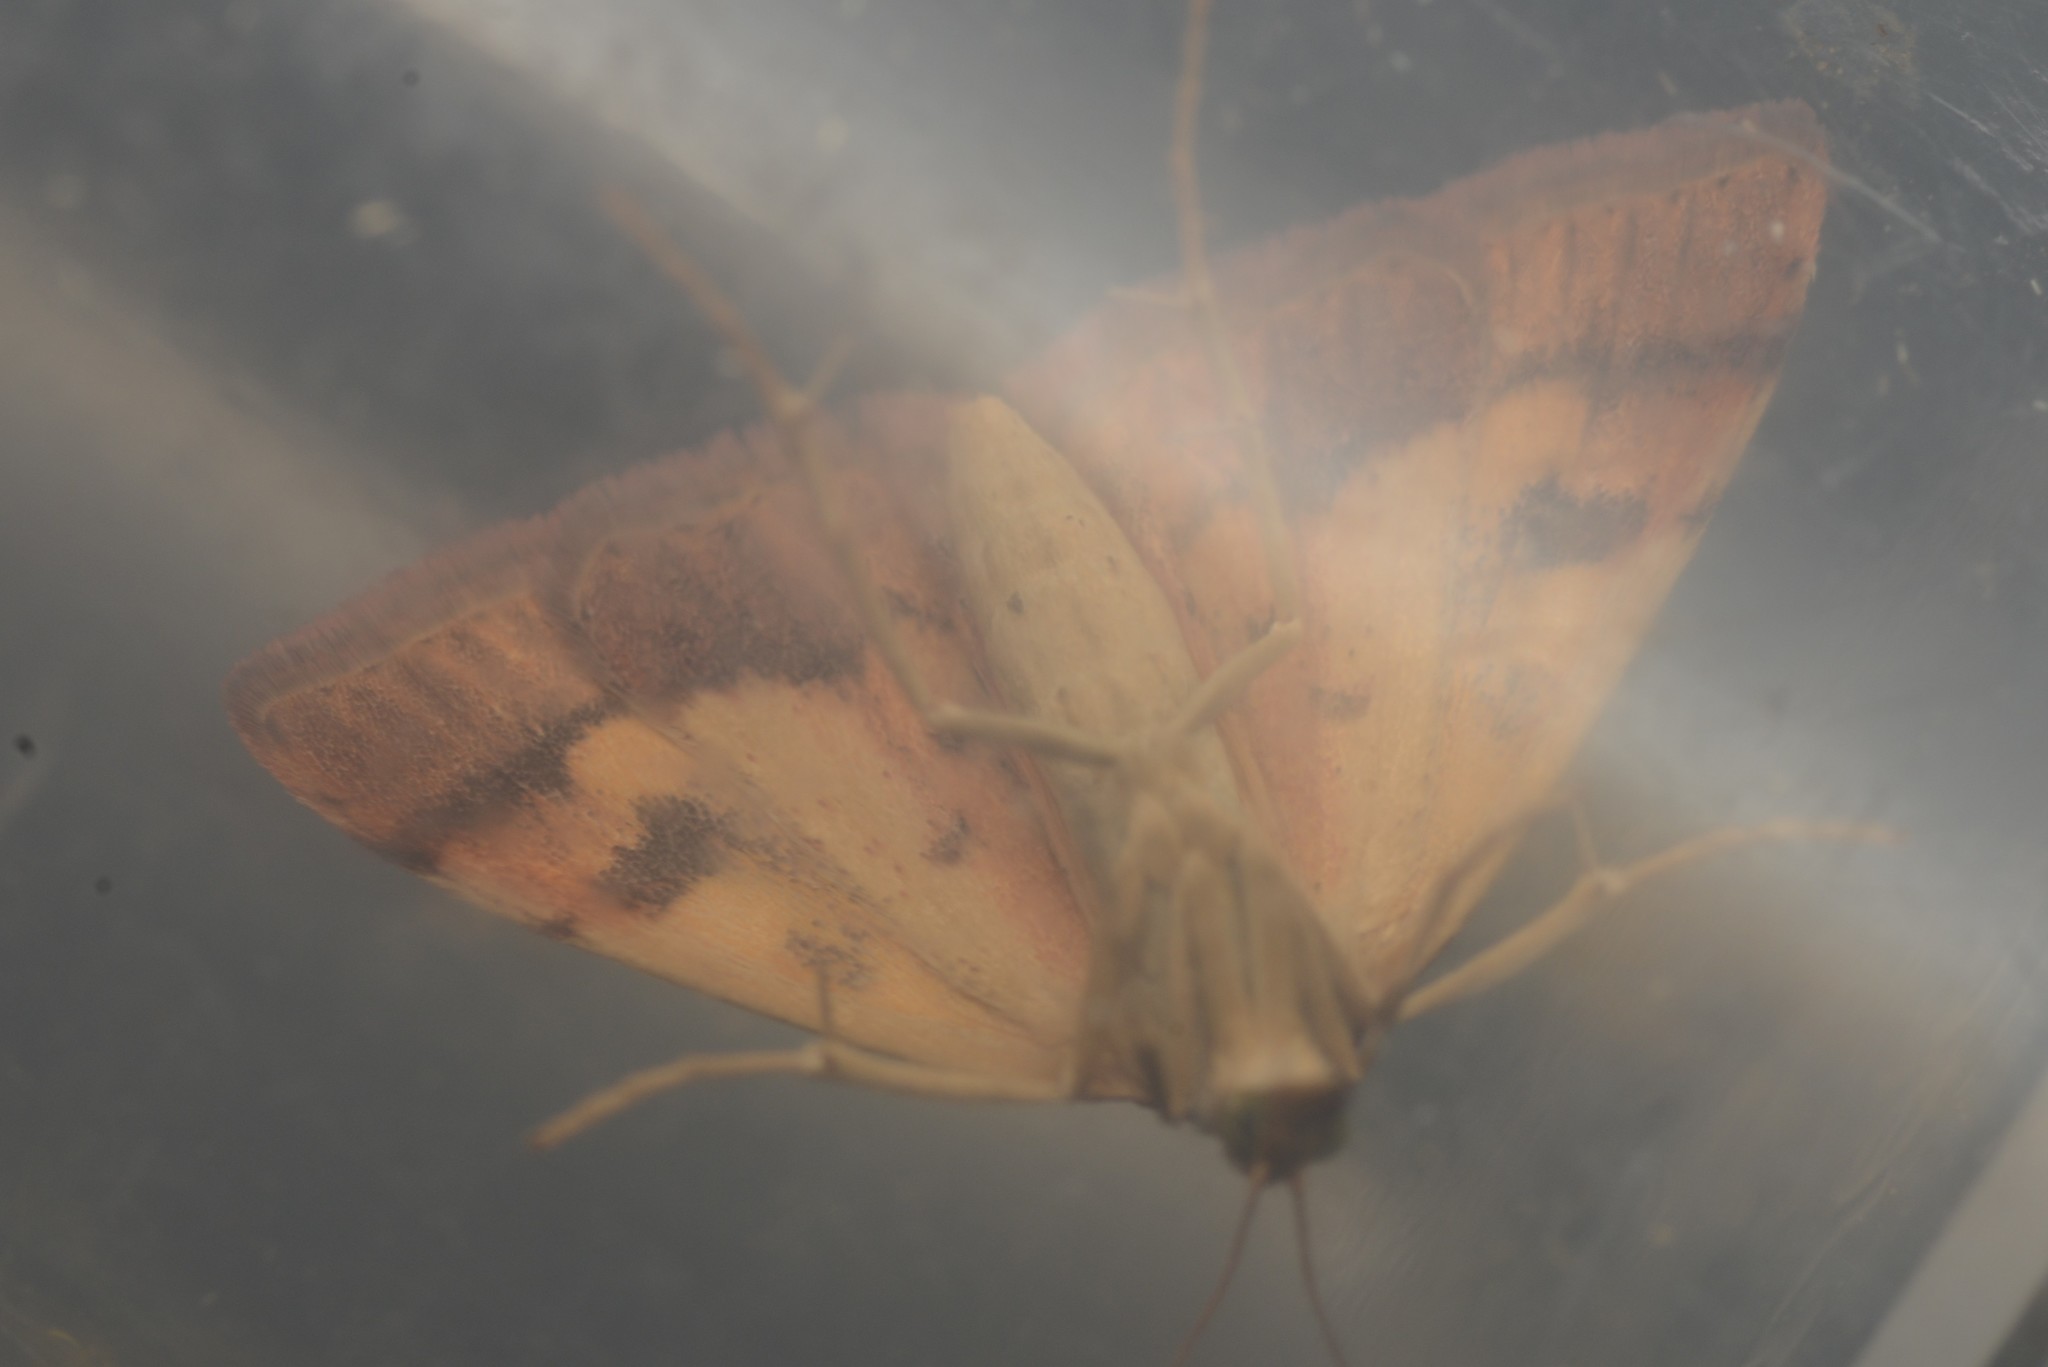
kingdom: Animalia
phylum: Arthropoda
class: Insecta
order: Lepidoptera
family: Crambidae
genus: Udea
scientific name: Udea Mnesictena flavidalis
